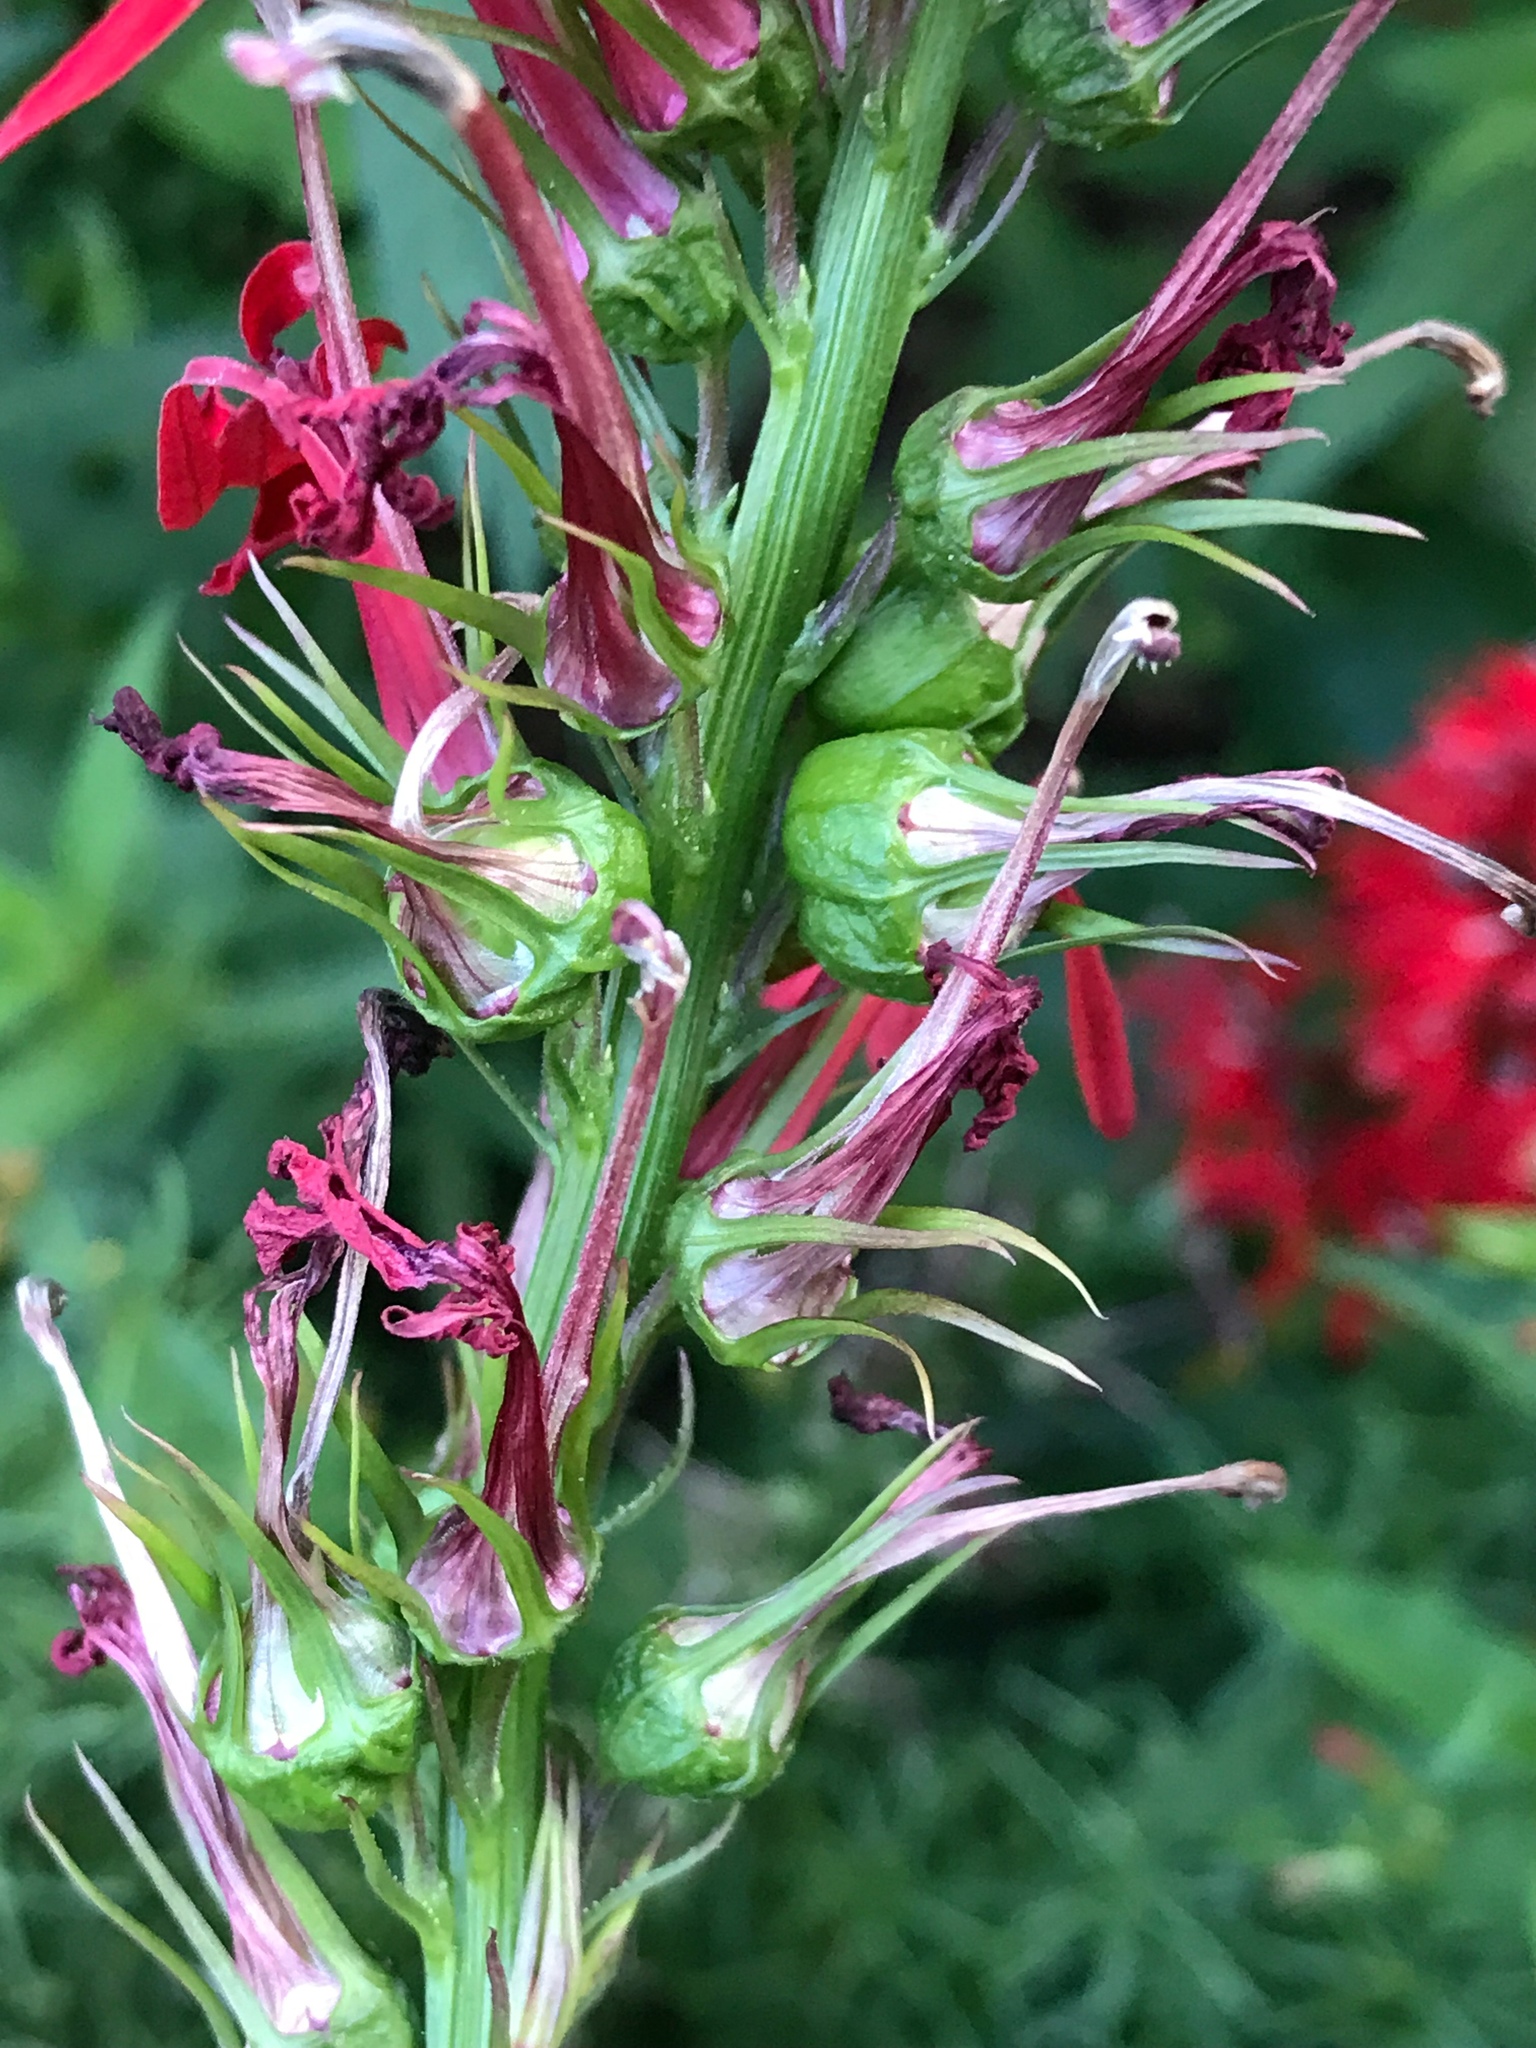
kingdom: Plantae
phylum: Tracheophyta
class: Magnoliopsida
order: Asterales
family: Campanulaceae
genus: Lobelia
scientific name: Lobelia cardinalis
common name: Cardinal flower
